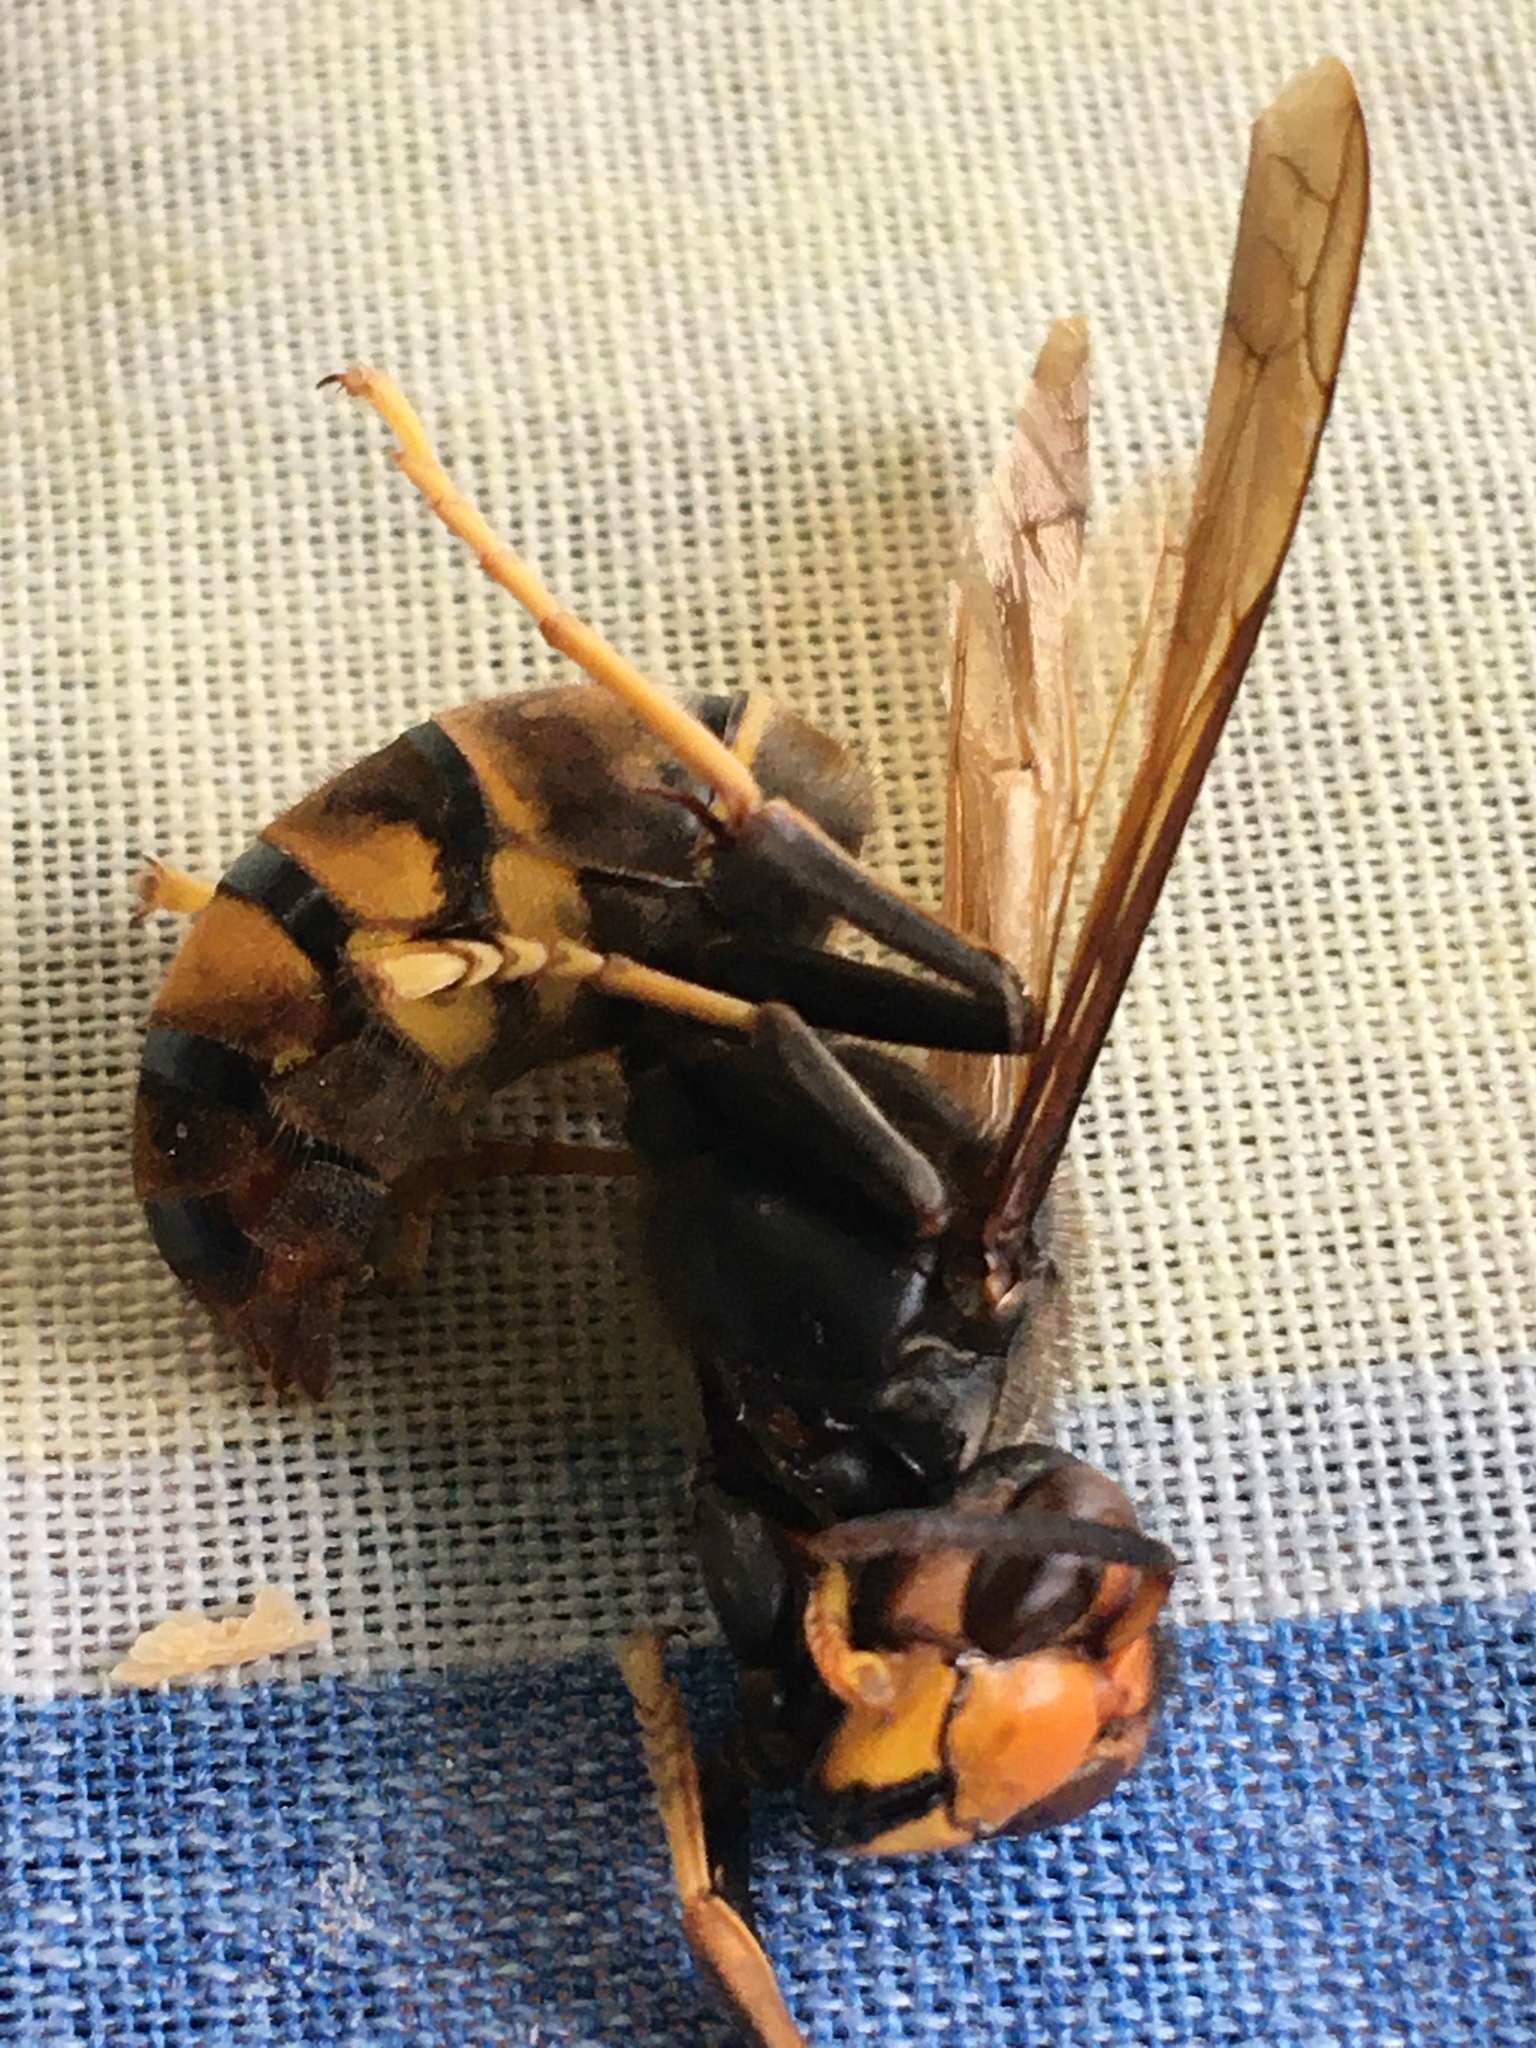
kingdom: Animalia
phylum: Arthropoda
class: Insecta
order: Hymenoptera
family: Vespidae
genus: Vespa
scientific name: Vespa velutina
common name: Asian hornet
